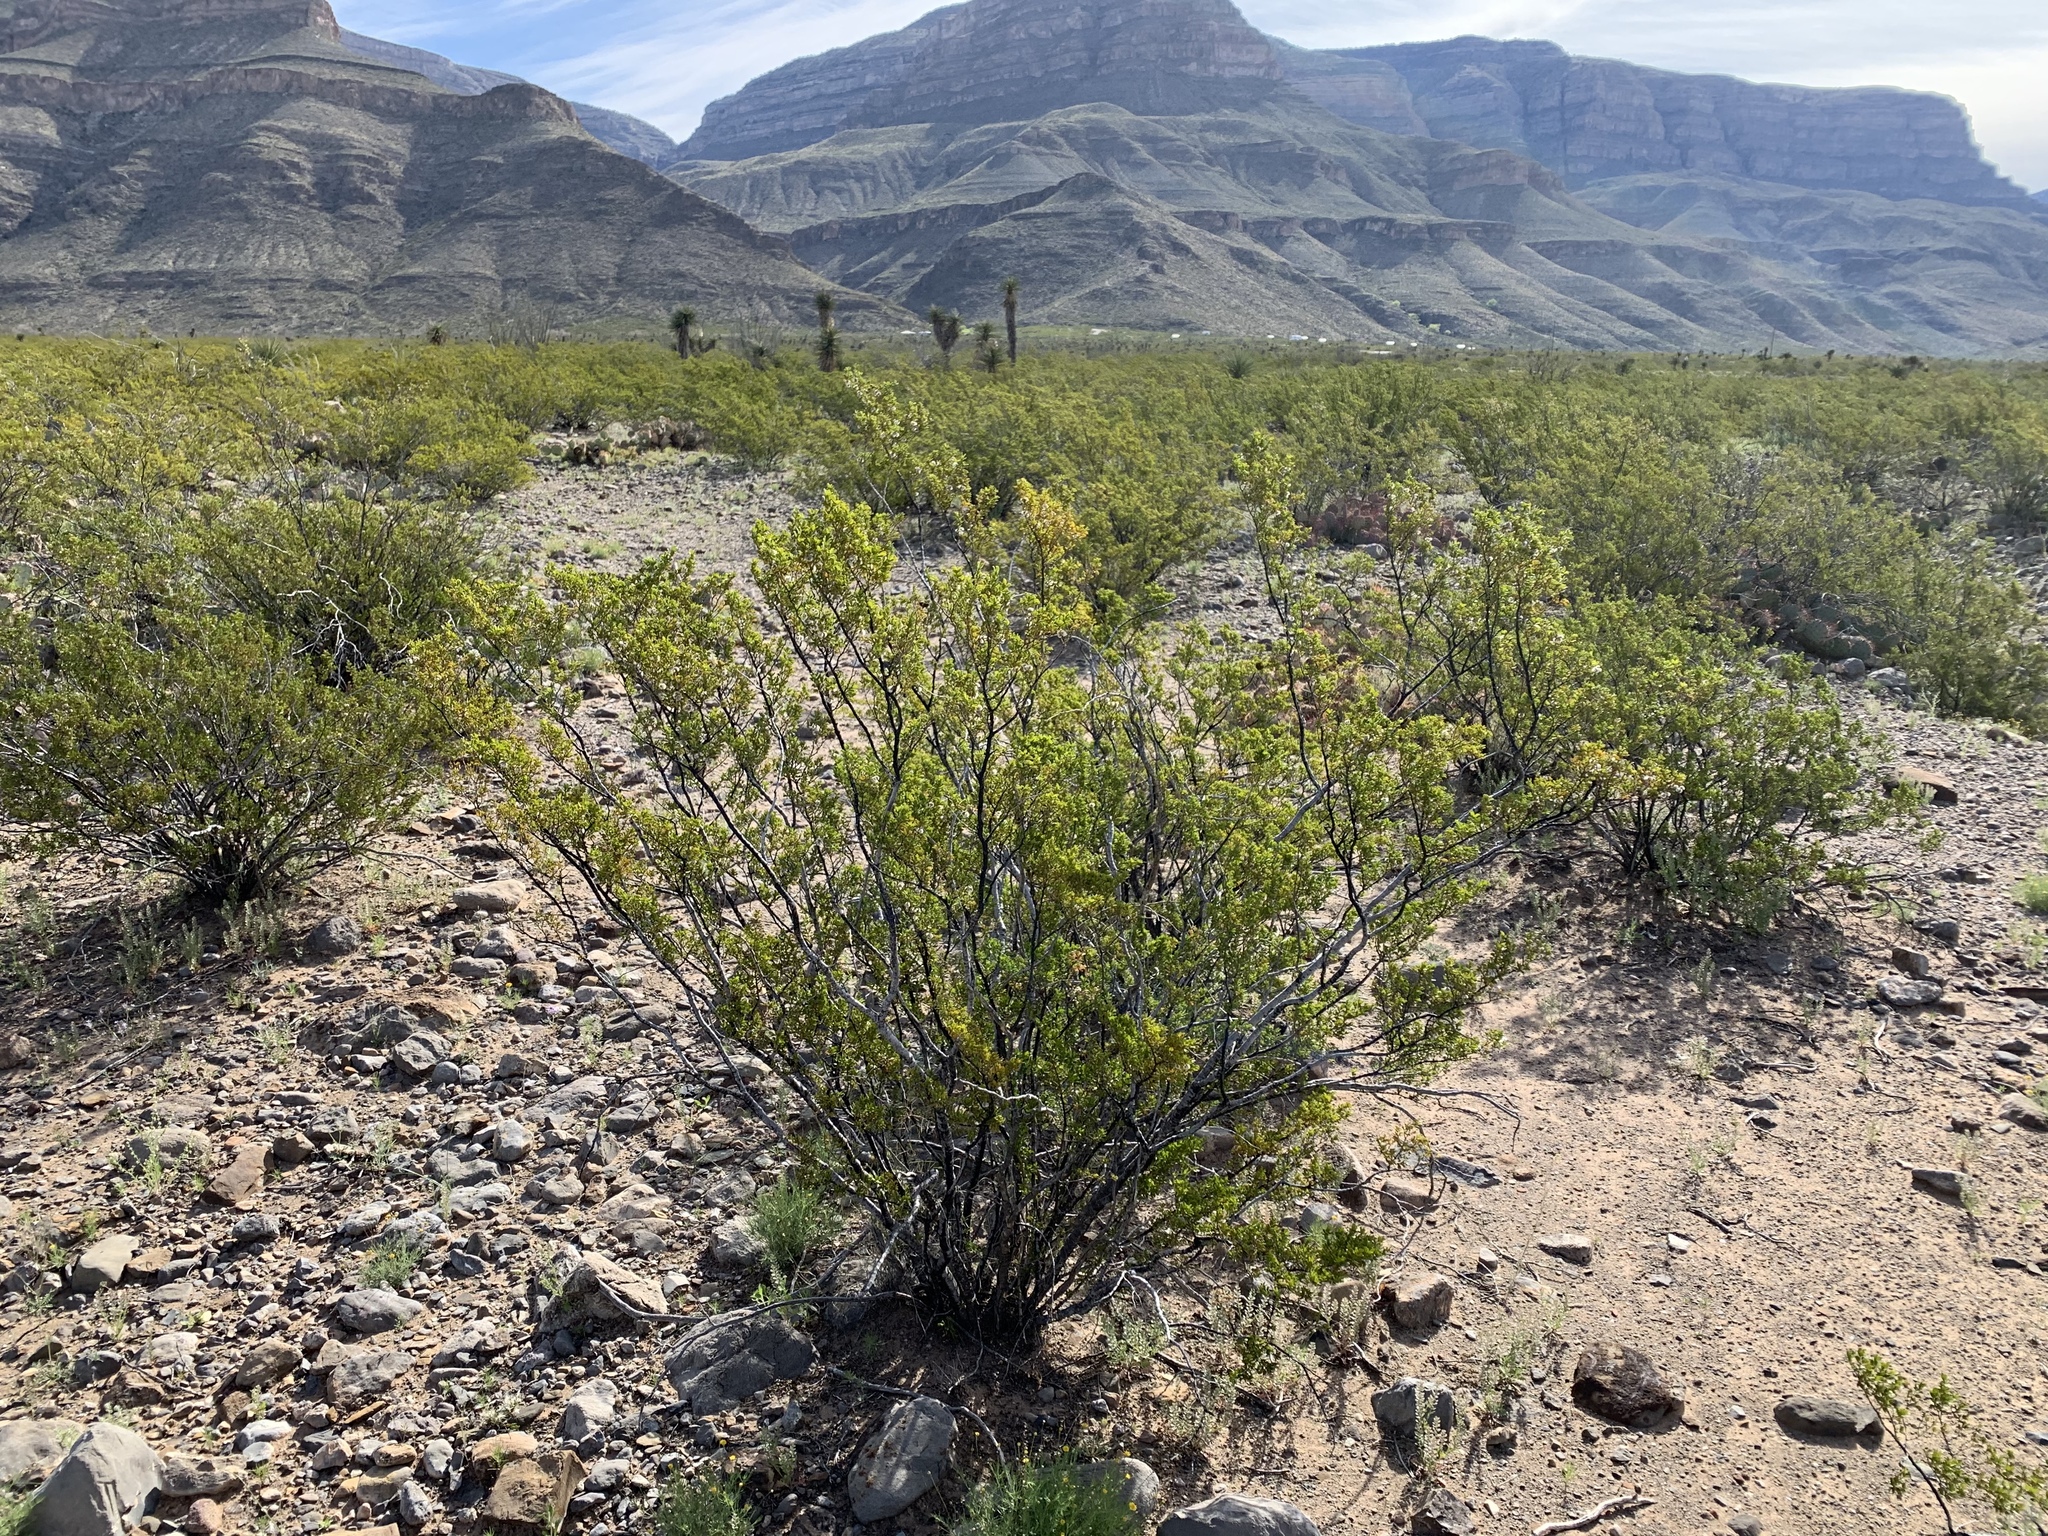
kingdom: Plantae
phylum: Tracheophyta
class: Magnoliopsida
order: Zygophyllales
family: Zygophyllaceae
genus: Larrea
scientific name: Larrea tridentata
